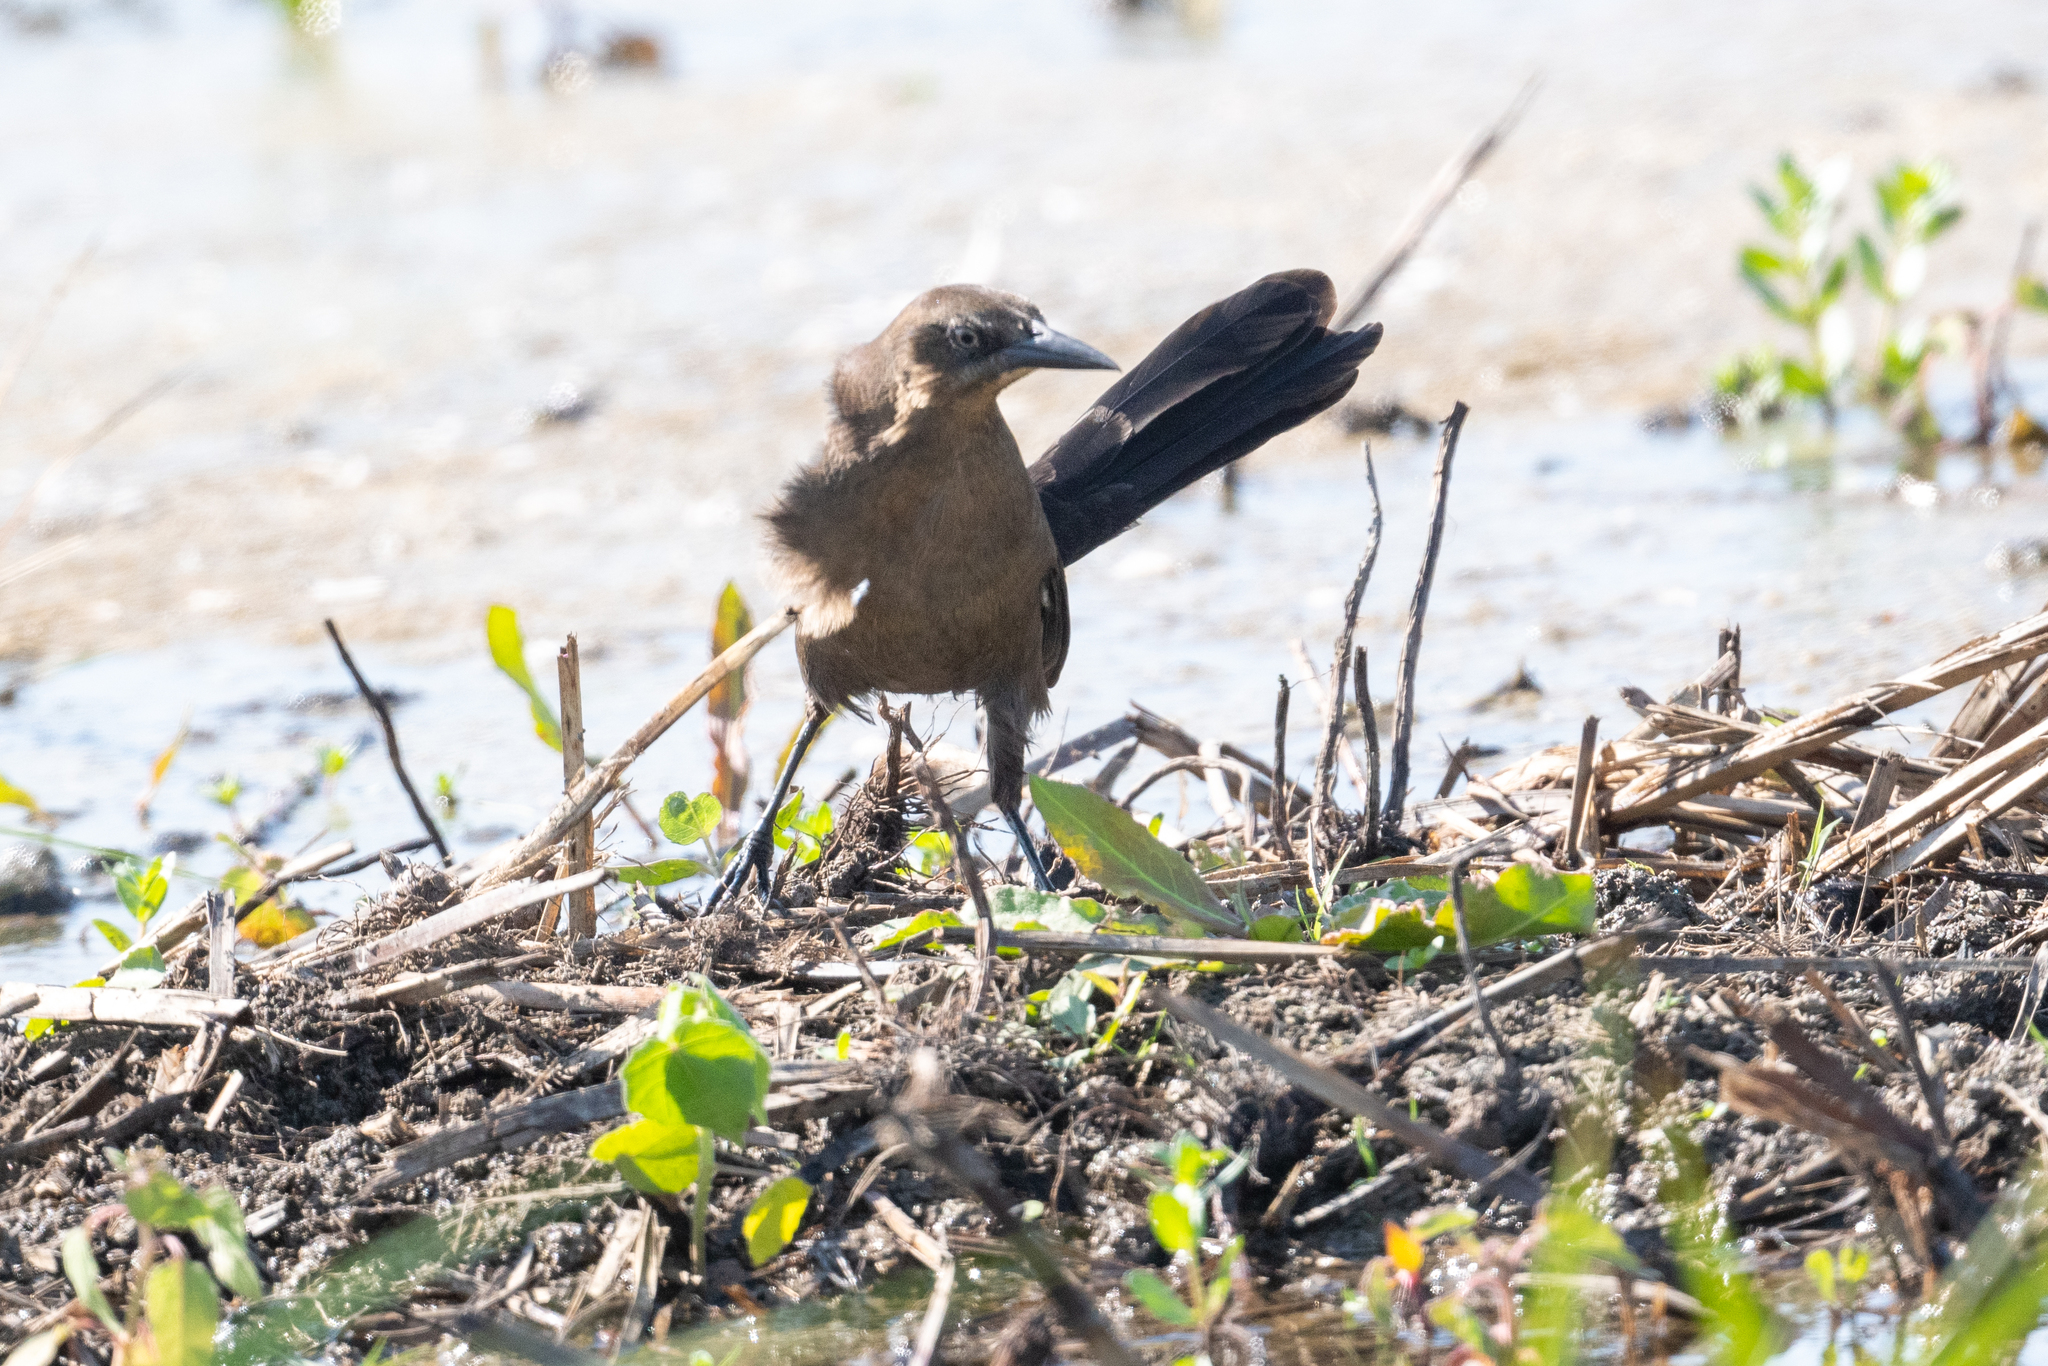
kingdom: Animalia
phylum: Chordata
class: Aves
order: Passeriformes
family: Icteridae
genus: Quiscalus
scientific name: Quiscalus mexicanus
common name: Great-tailed grackle
